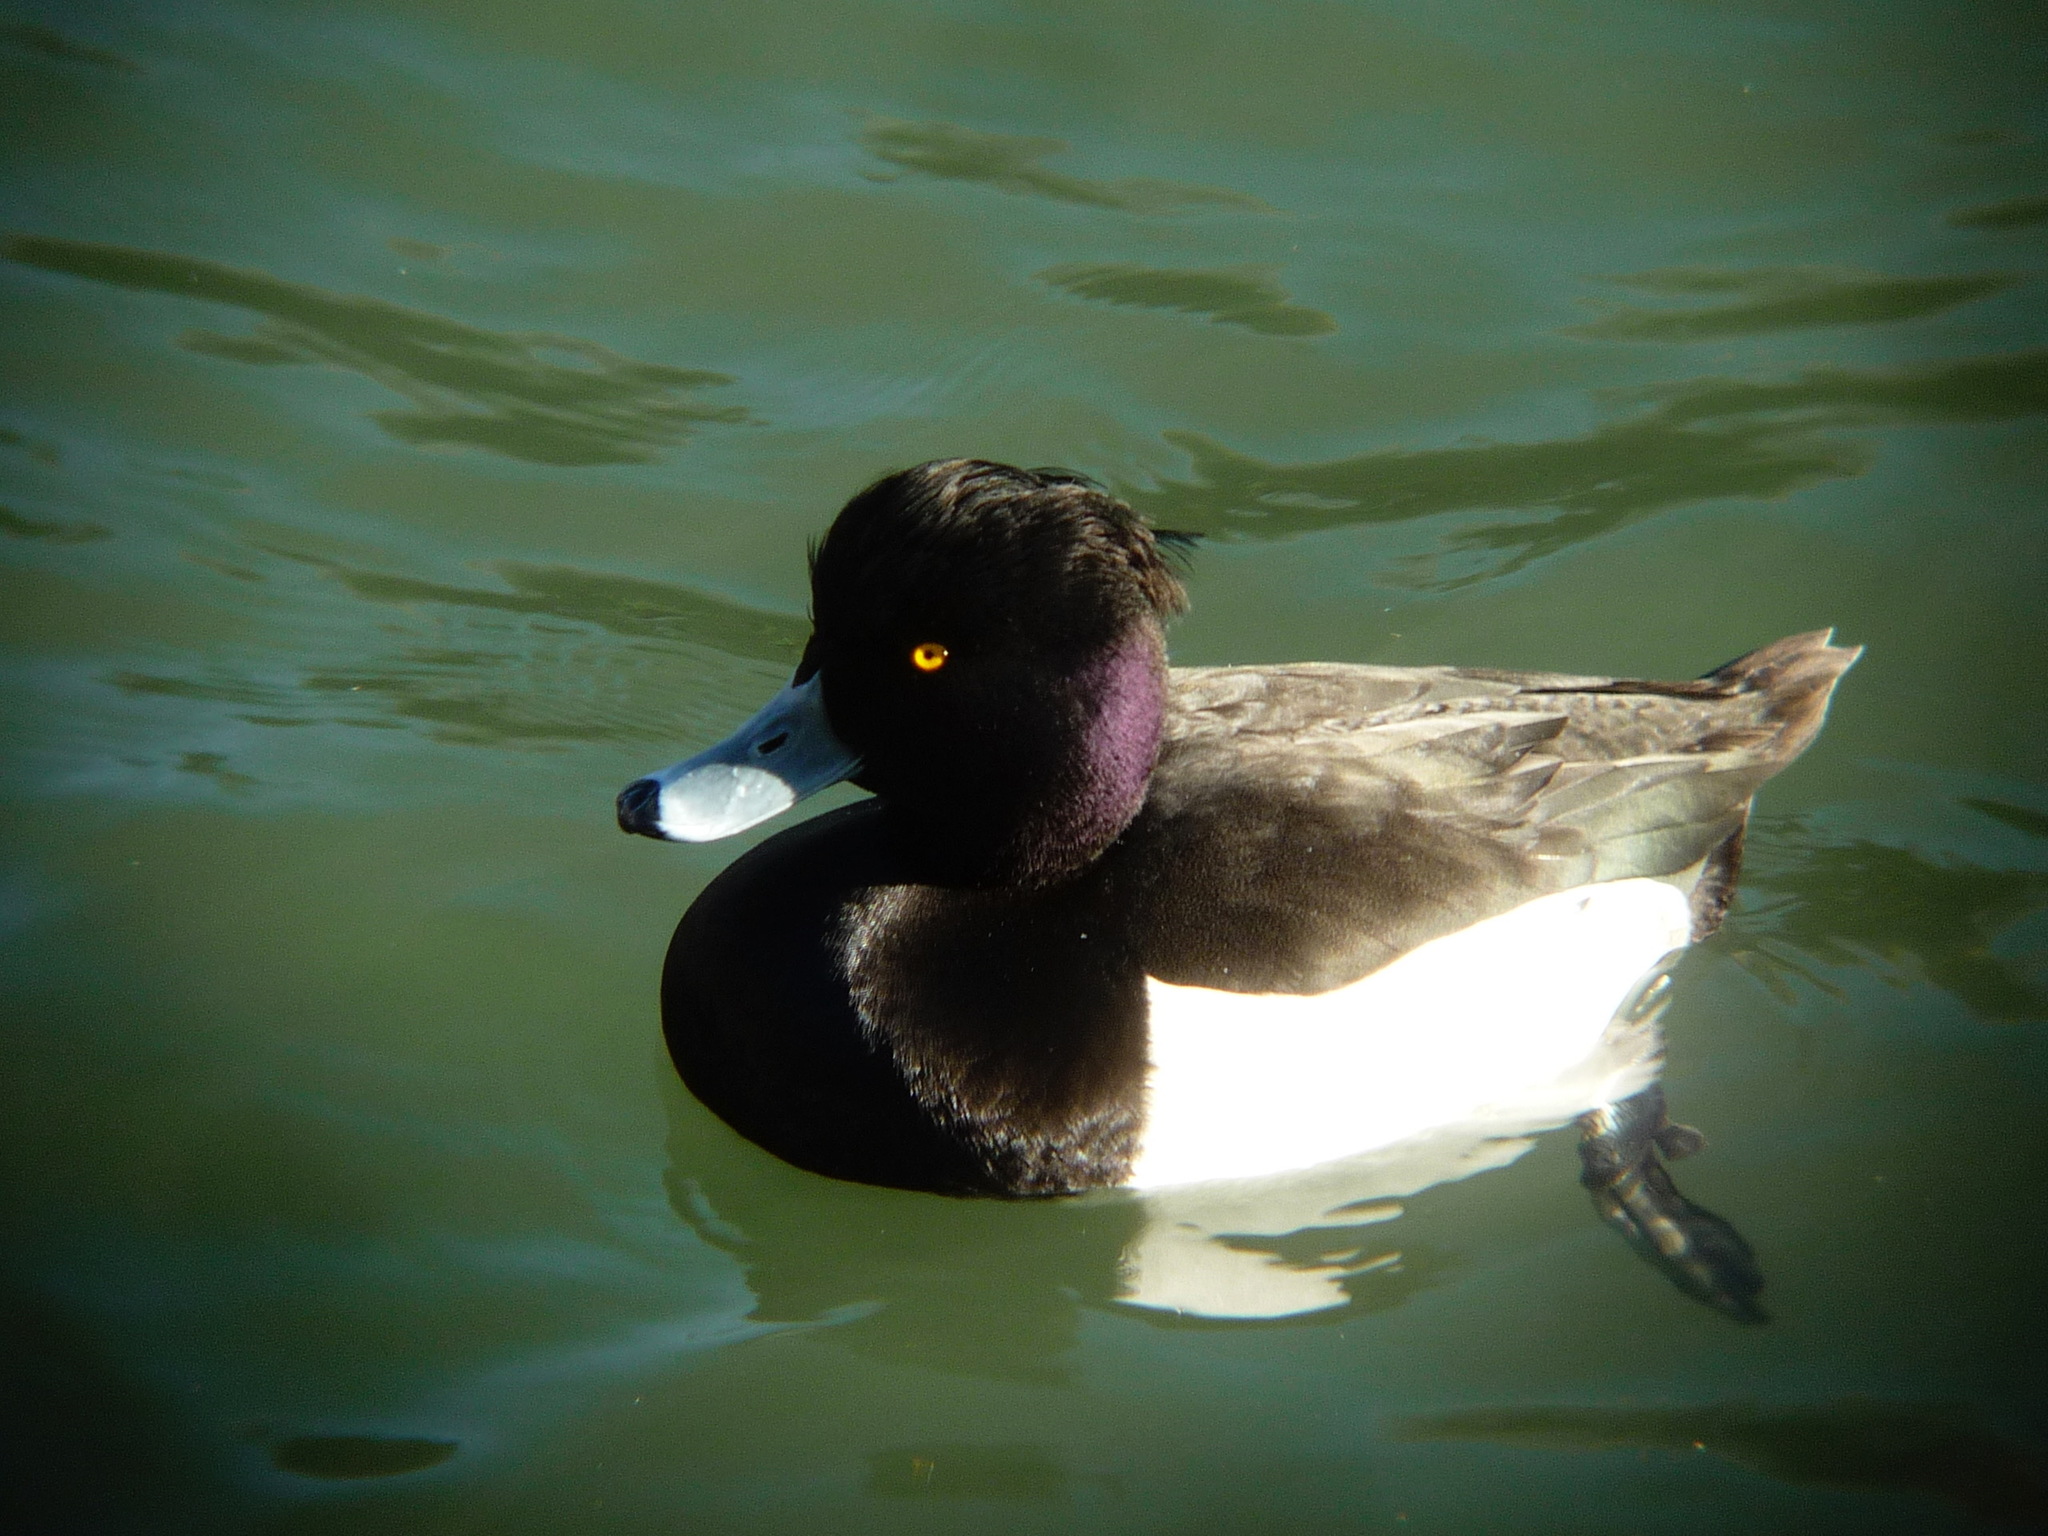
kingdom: Animalia
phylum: Chordata
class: Aves
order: Anseriformes
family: Anatidae
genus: Aythya
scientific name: Aythya fuligula
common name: Tufted duck
